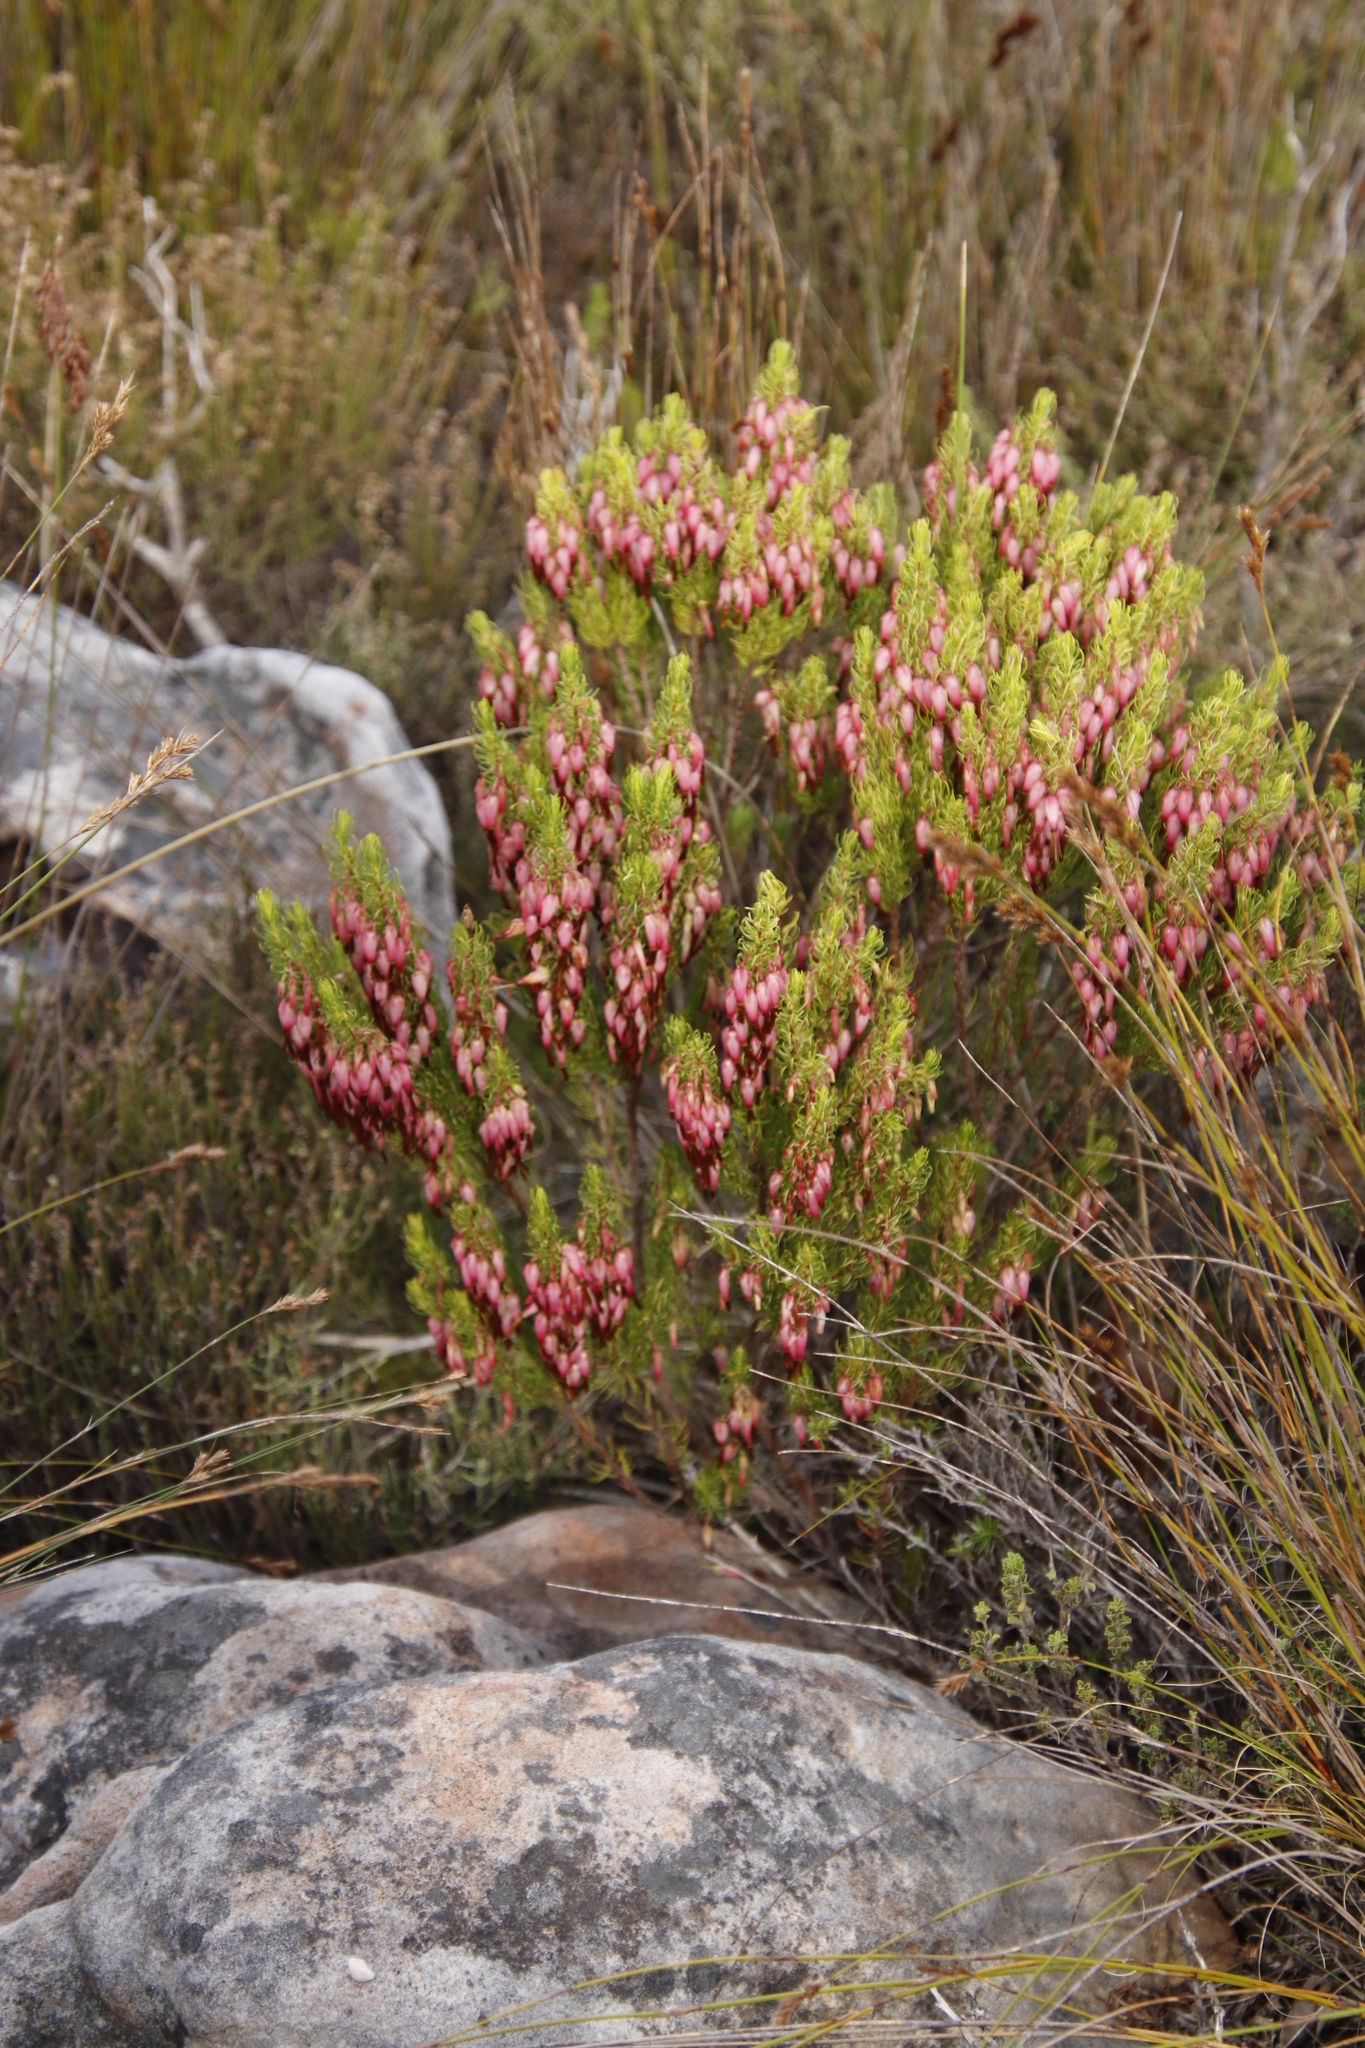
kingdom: Plantae
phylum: Tracheophyta
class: Magnoliopsida
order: Ericales
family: Ericaceae
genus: Erica
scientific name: Erica plukenetii
